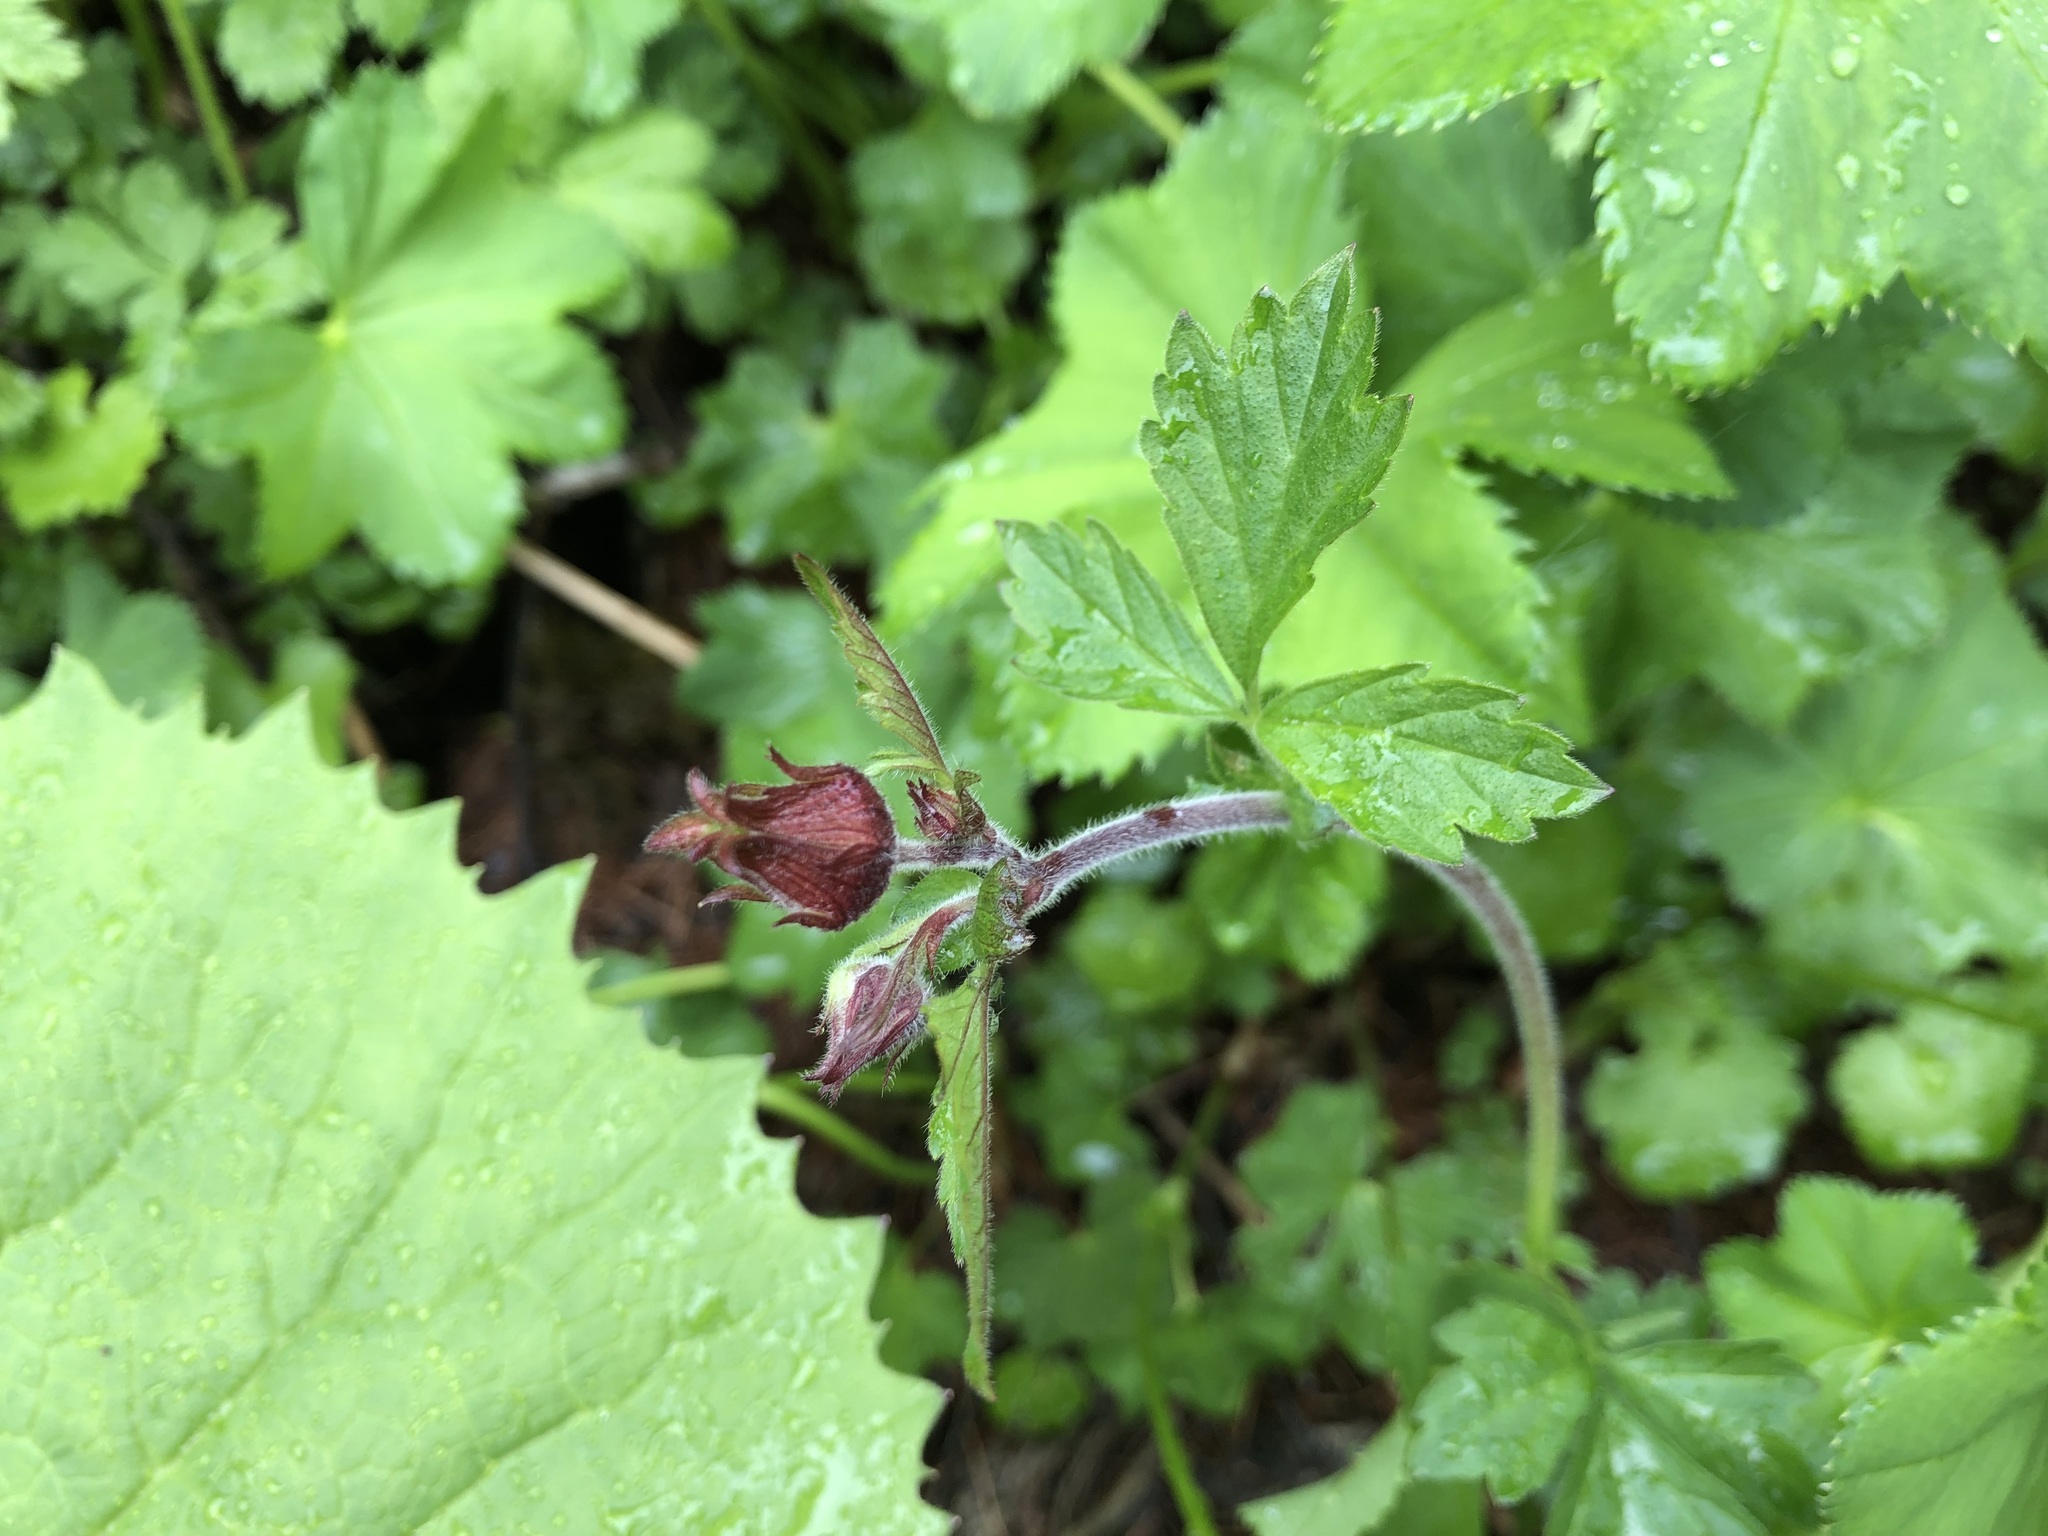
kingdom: Plantae
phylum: Tracheophyta
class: Magnoliopsida
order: Rosales
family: Rosaceae
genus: Geum
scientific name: Geum rivale
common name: Water avens
